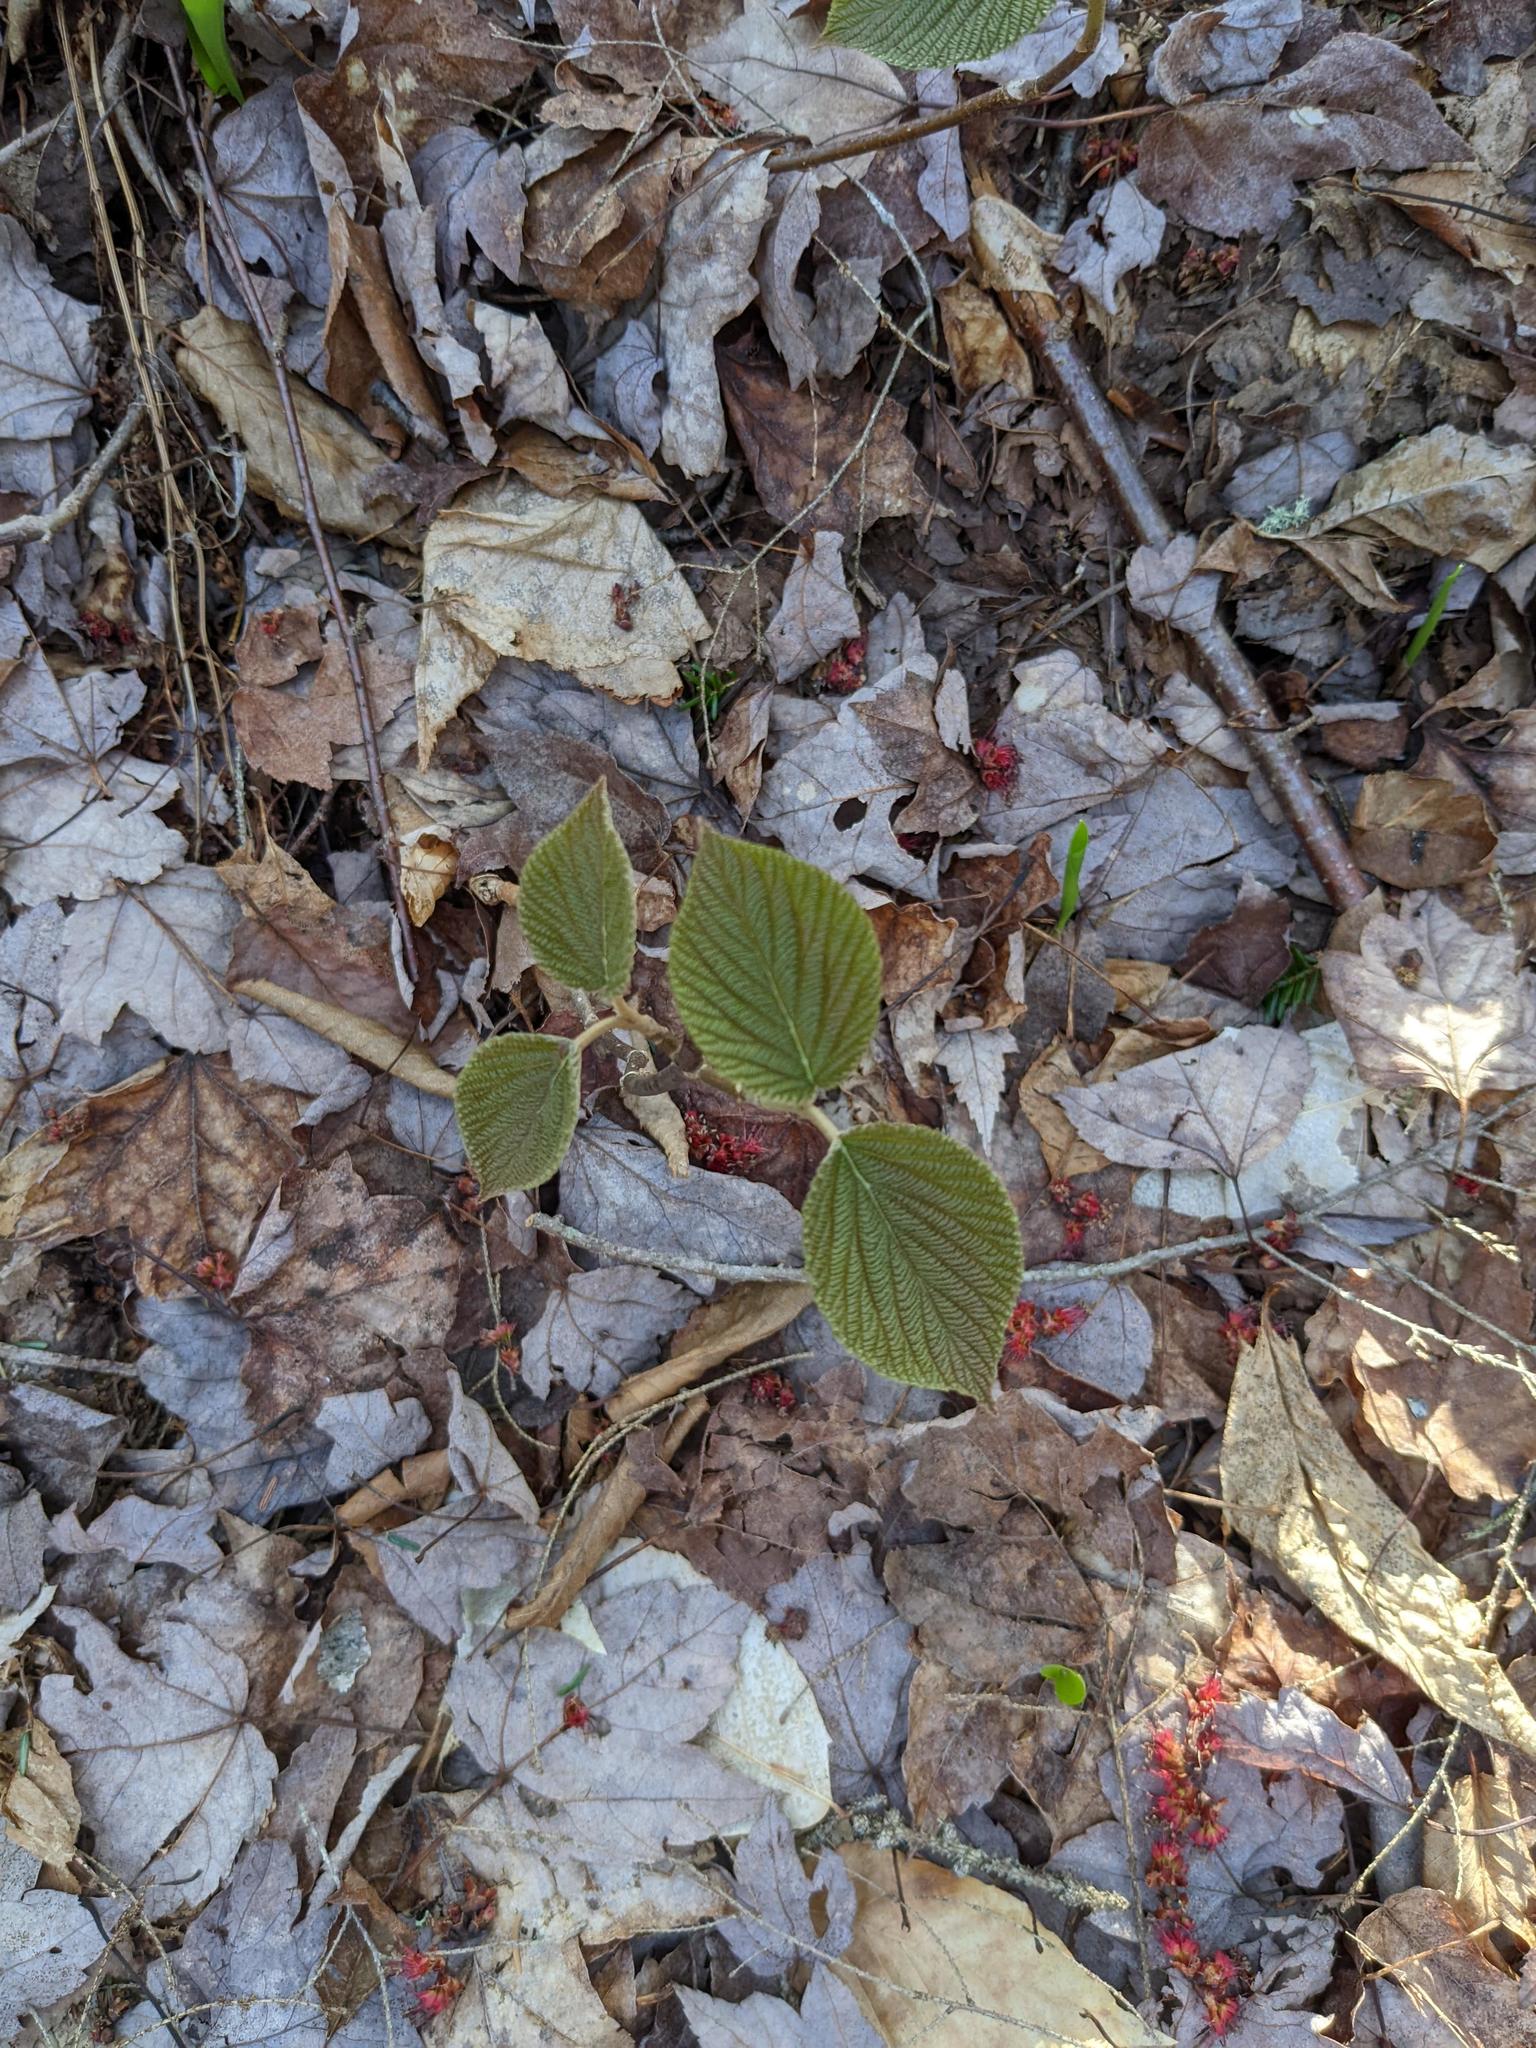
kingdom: Plantae
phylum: Tracheophyta
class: Magnoliopsida
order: Dipsacales
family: Viburnaceae
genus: Viburnum
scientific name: Viburnum lantanoides
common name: Hobblebush
